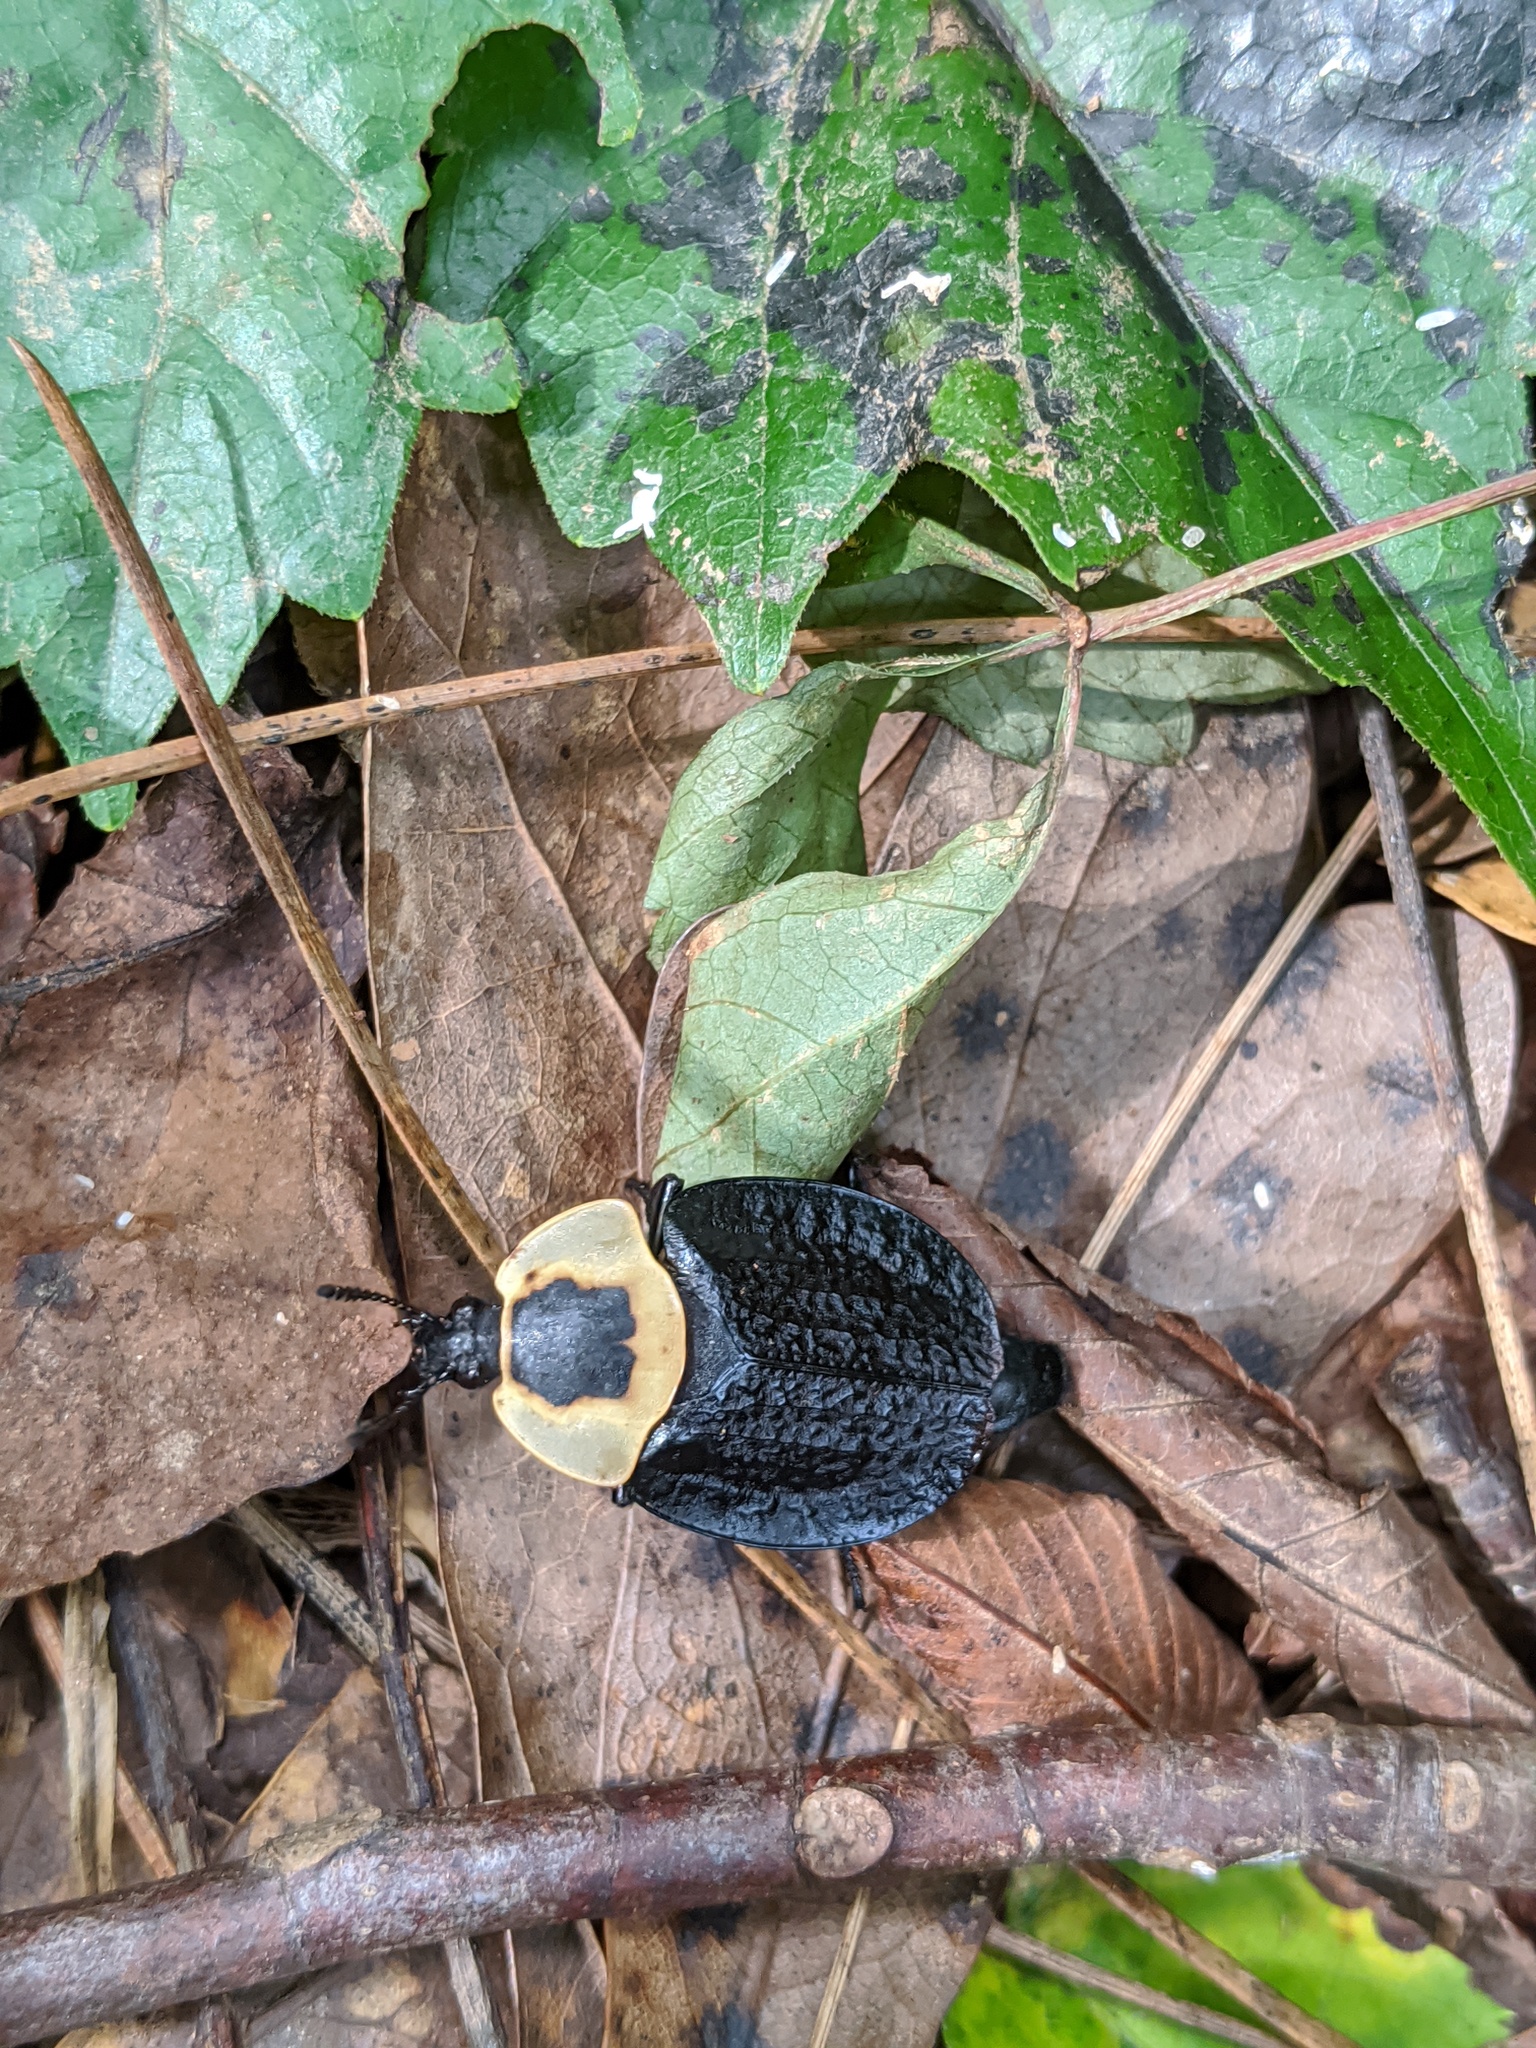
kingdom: Animalia
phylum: Arthropoda
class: Insecta
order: Coleoptera
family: Staphylinidae
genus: Necrophila
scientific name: Necrophila americana
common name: American carrion beetle
